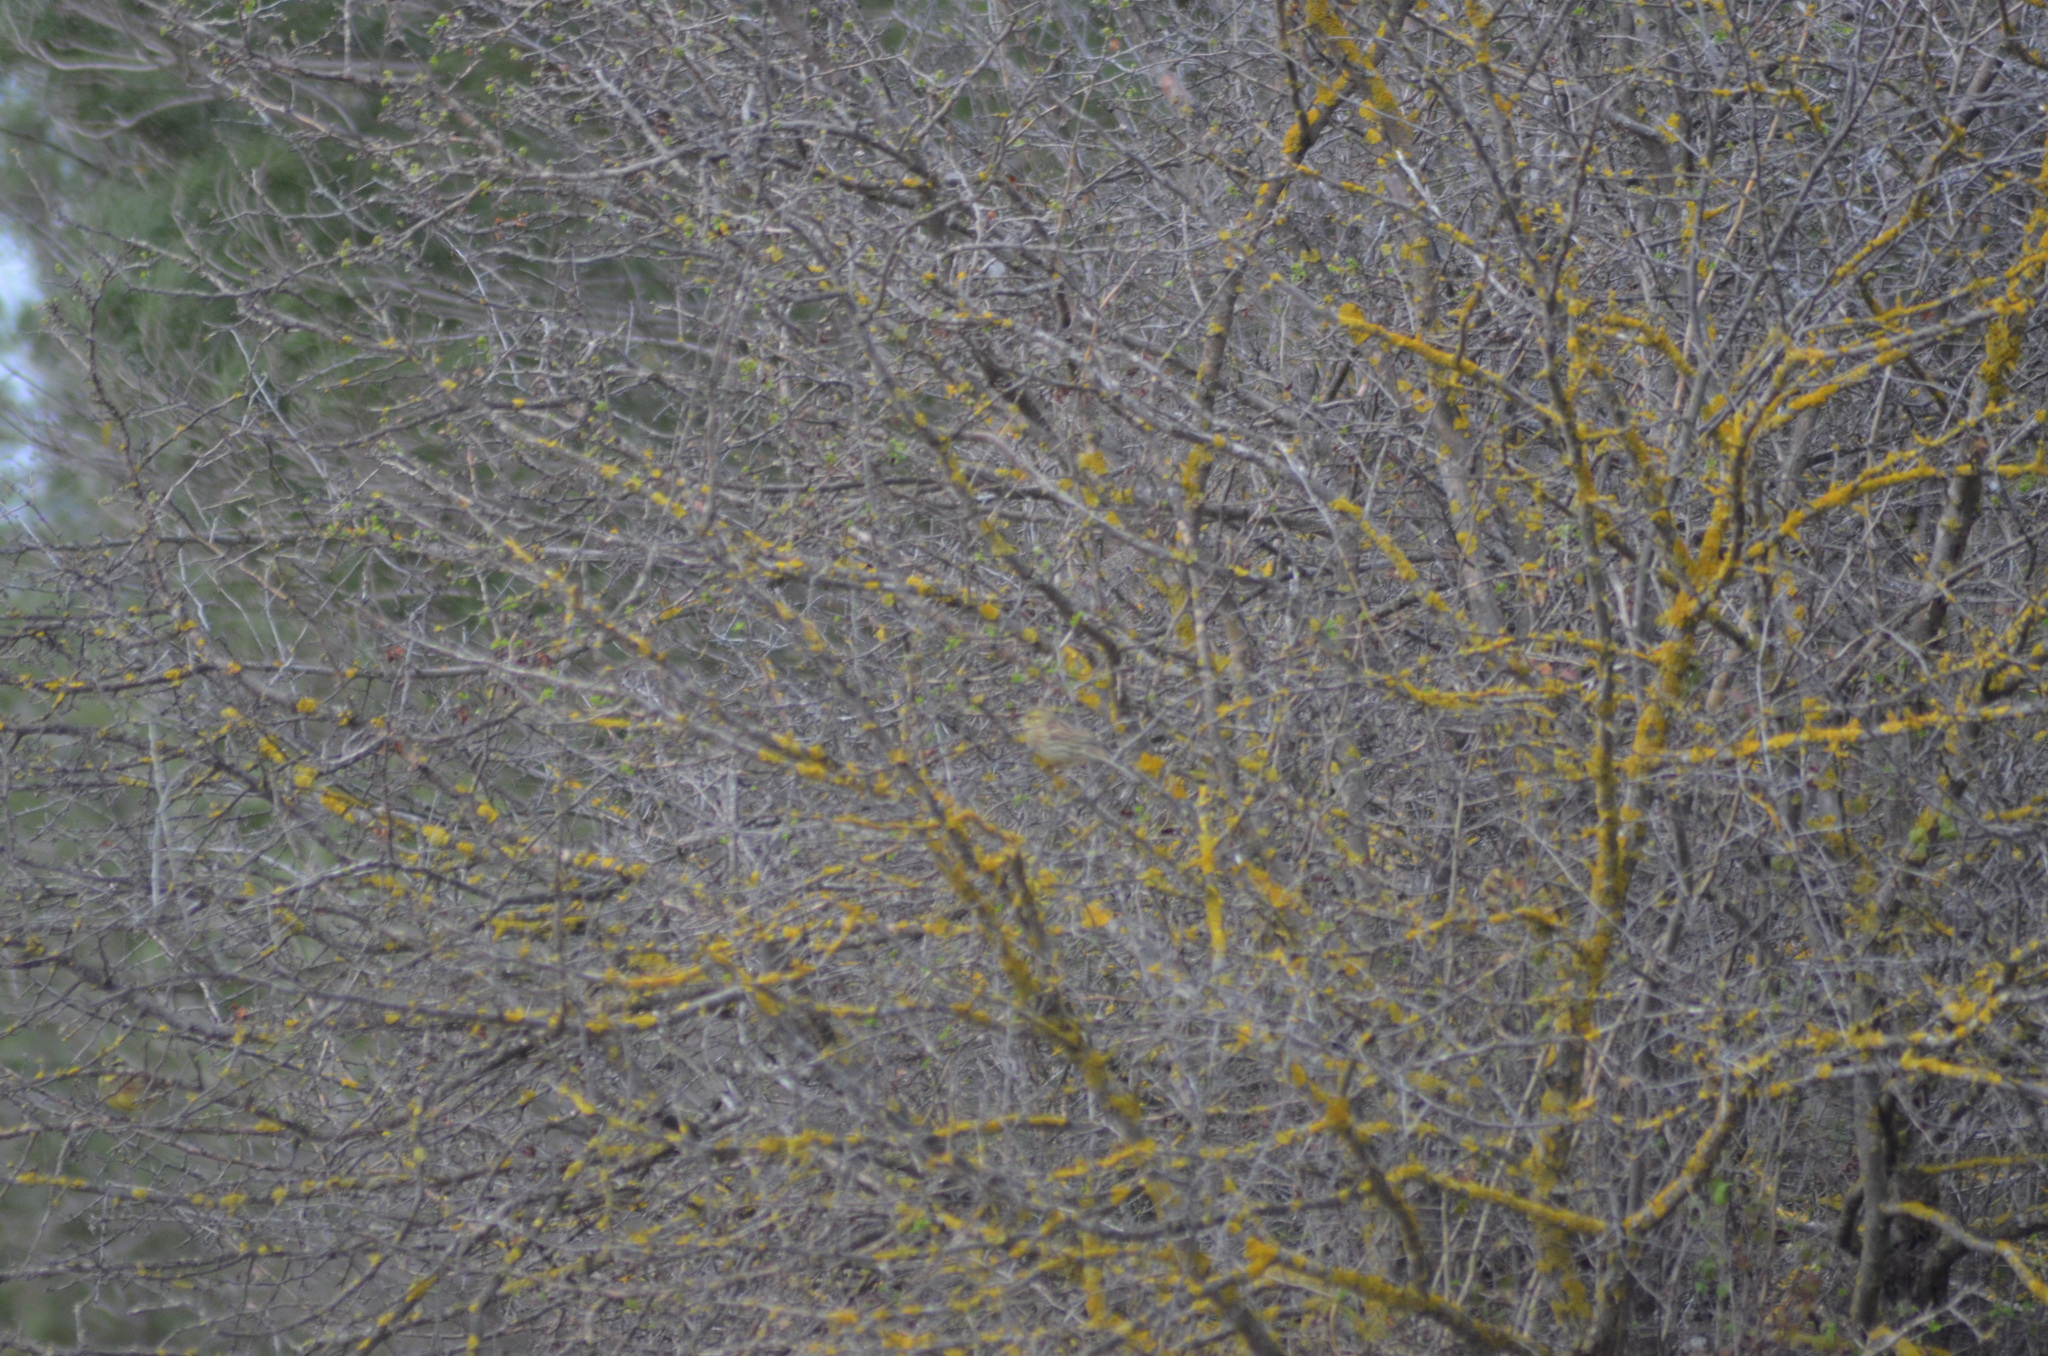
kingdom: Animalia
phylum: Chordata
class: Aves
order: Passeriformes
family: Emberizidae
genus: Emberiza
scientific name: Emberiza cirlus
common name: Cirl bunting
